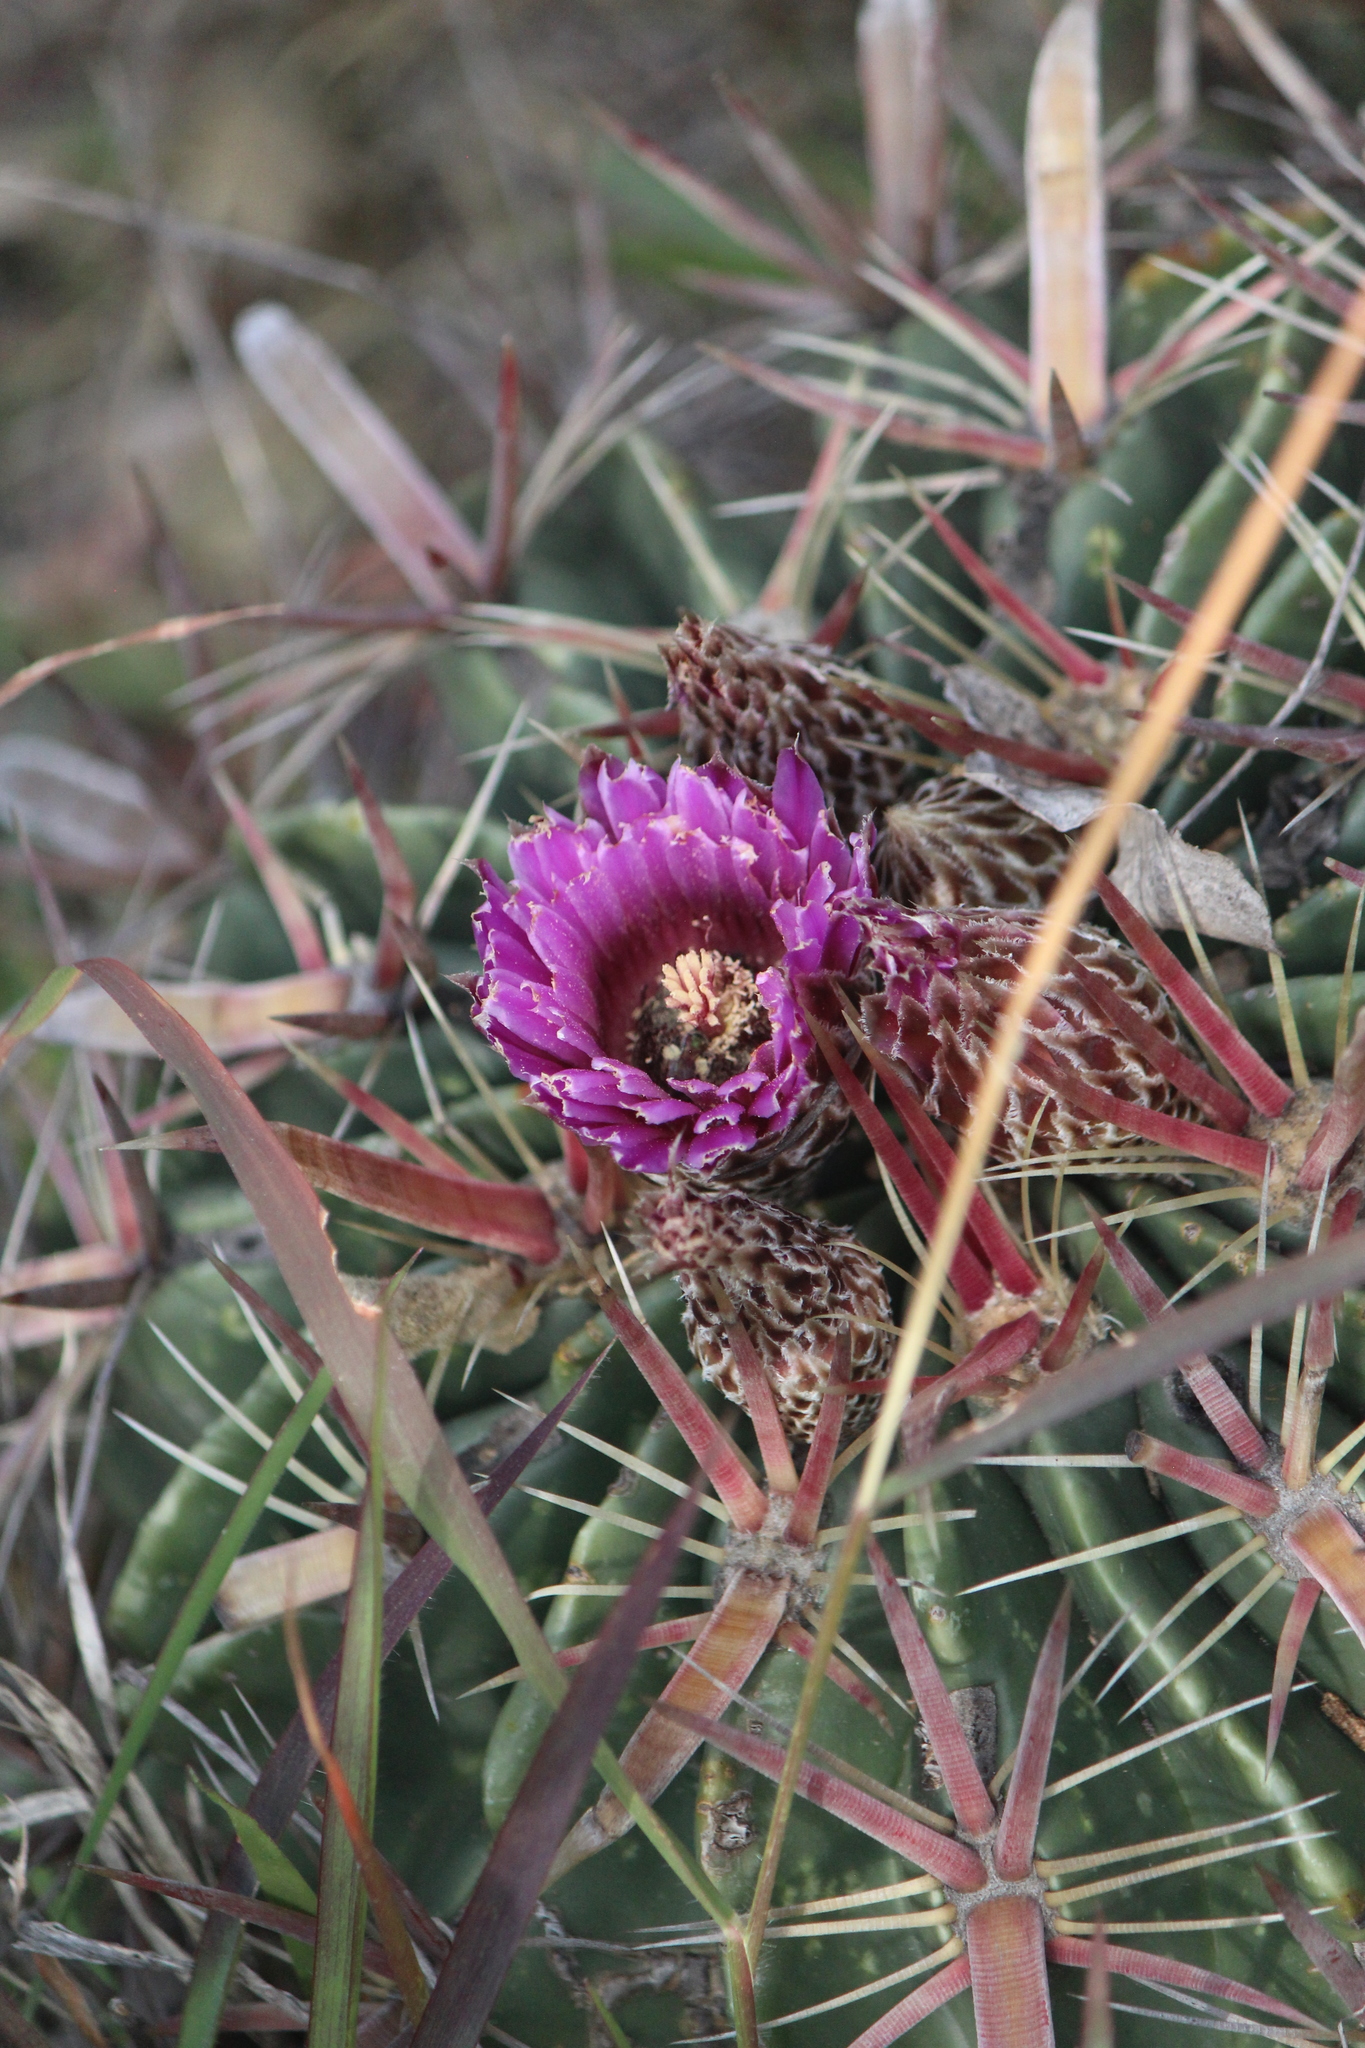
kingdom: Plantae
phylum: Tracheophyta
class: Magnoliopsida
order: Caryophyllales
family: Cactaceae
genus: Ferocactus
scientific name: Ferocactus latispinus
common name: Devil's-tongue cactus
